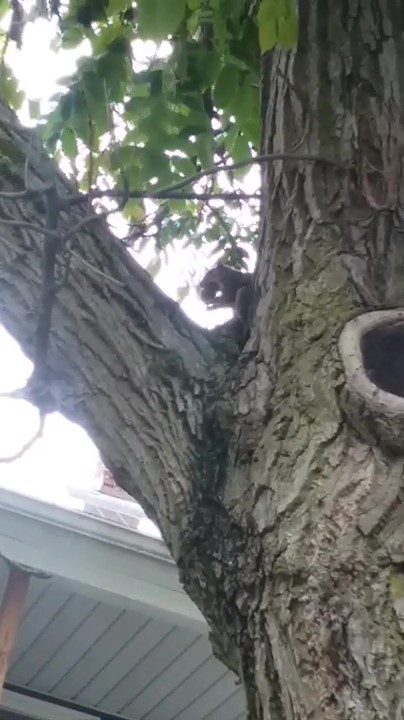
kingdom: Animalia
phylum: Chordata
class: Mammalia
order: Rodentia
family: Sciuridae
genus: Sciurus
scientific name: Sciurus carolinensis
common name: Eastern gray squirrel
